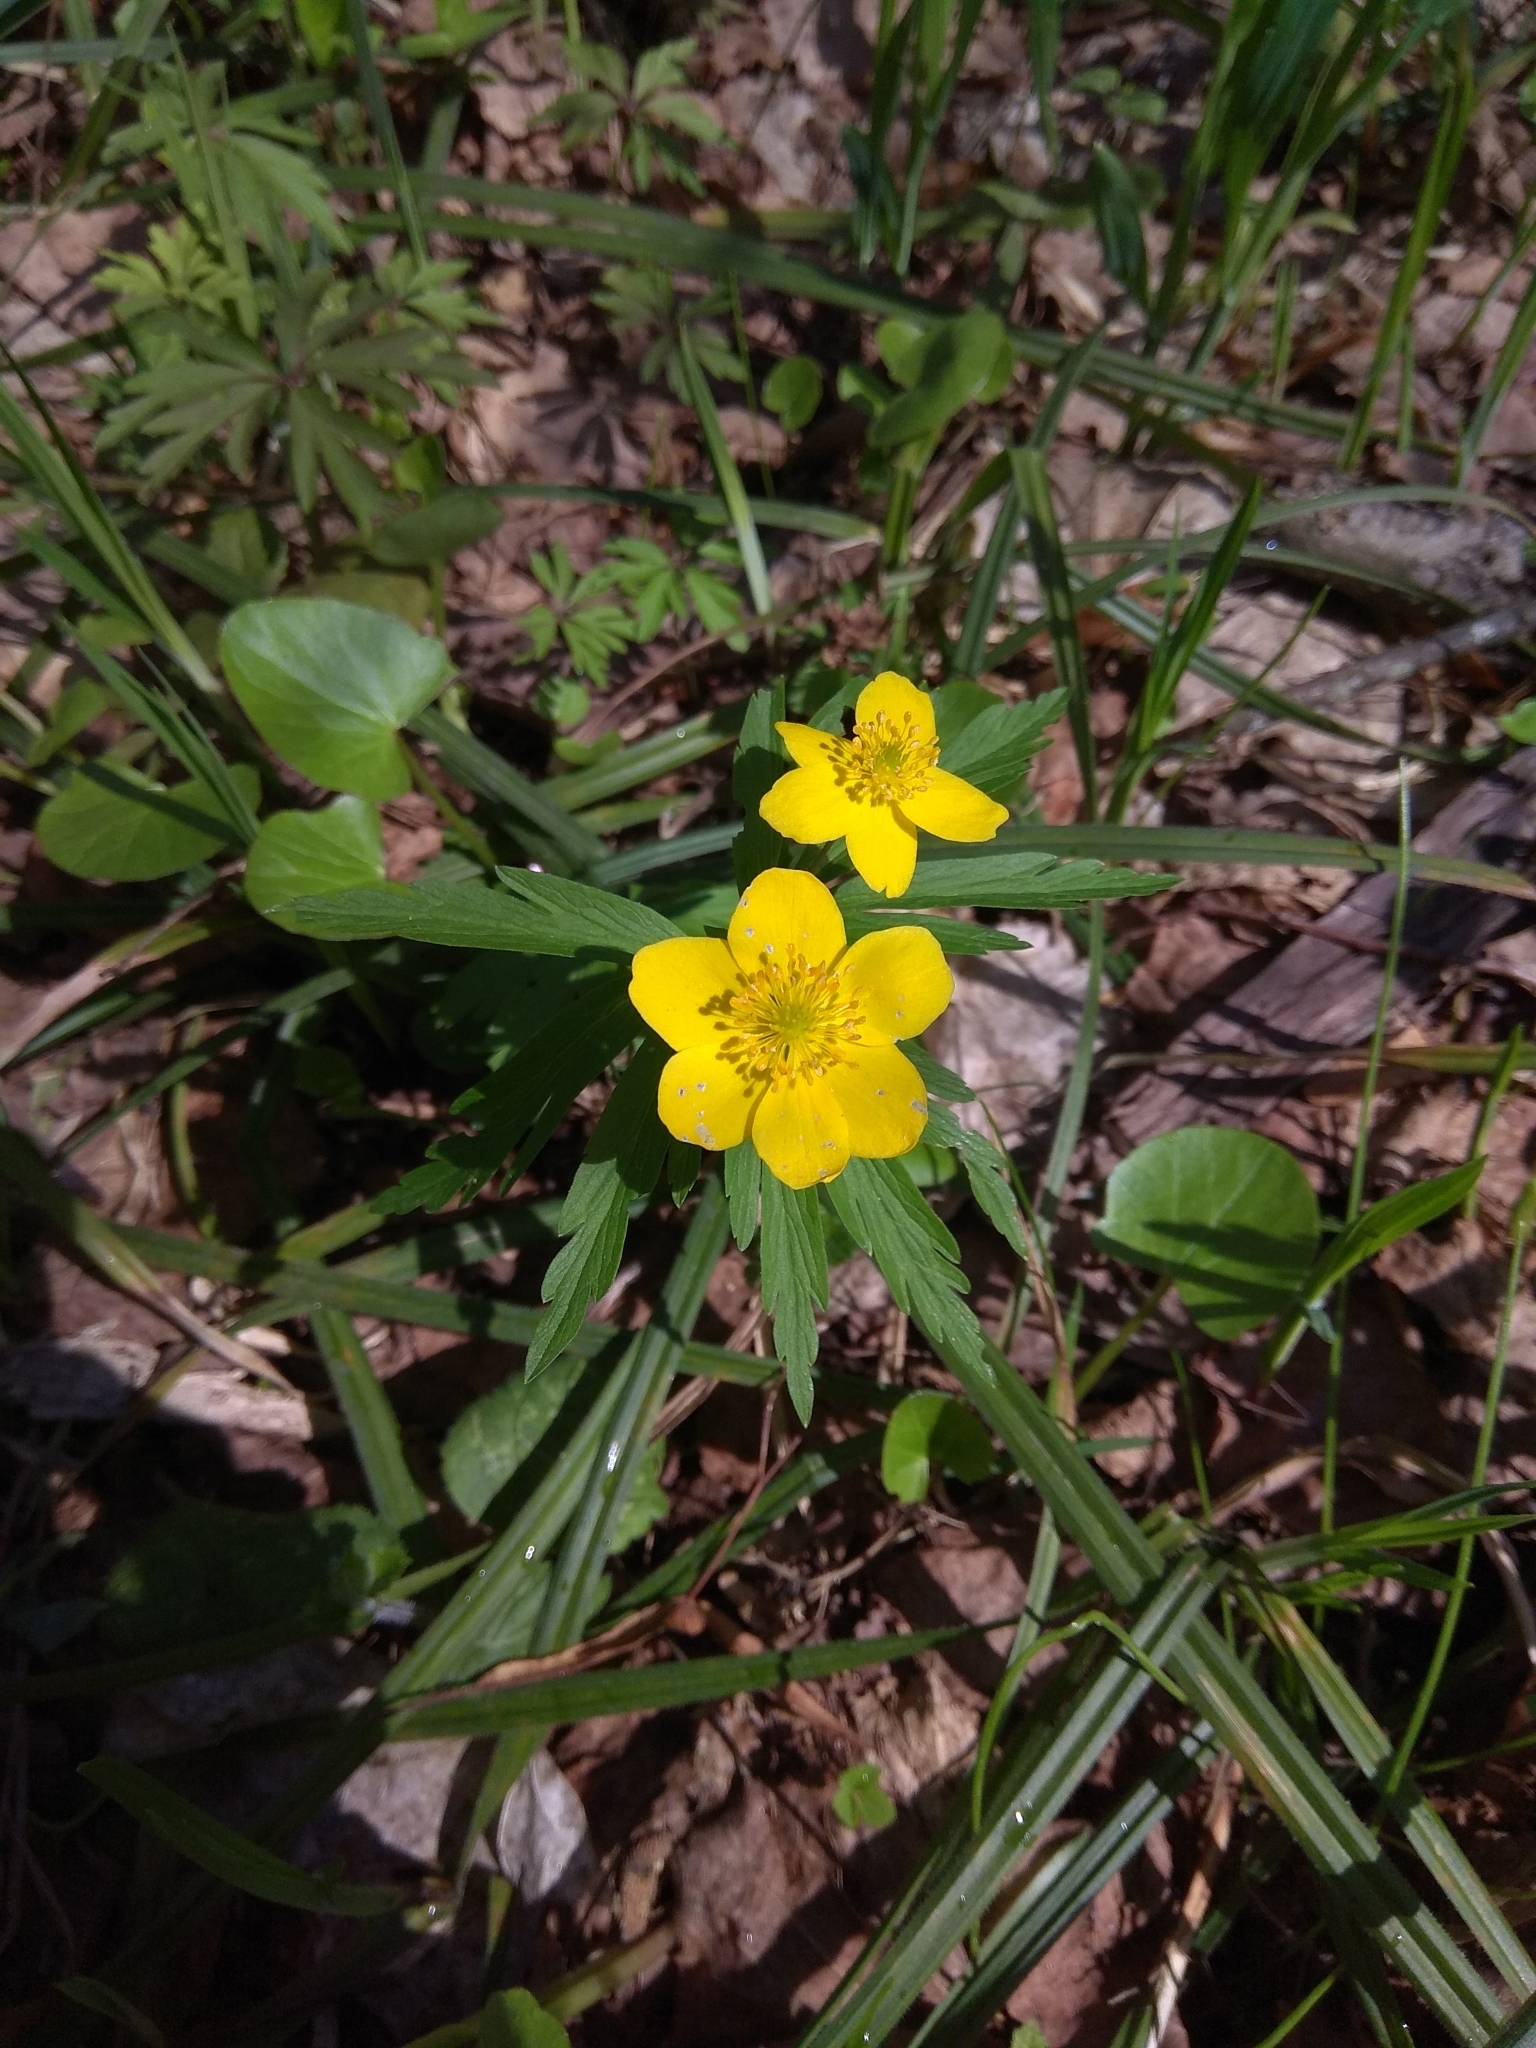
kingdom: Plantae
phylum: Tracheophyta
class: Magnoliopsida
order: Ranunculales
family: Ranunculaceae
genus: Anemone
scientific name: Anemone ranunculoides
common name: Yellow anemone
